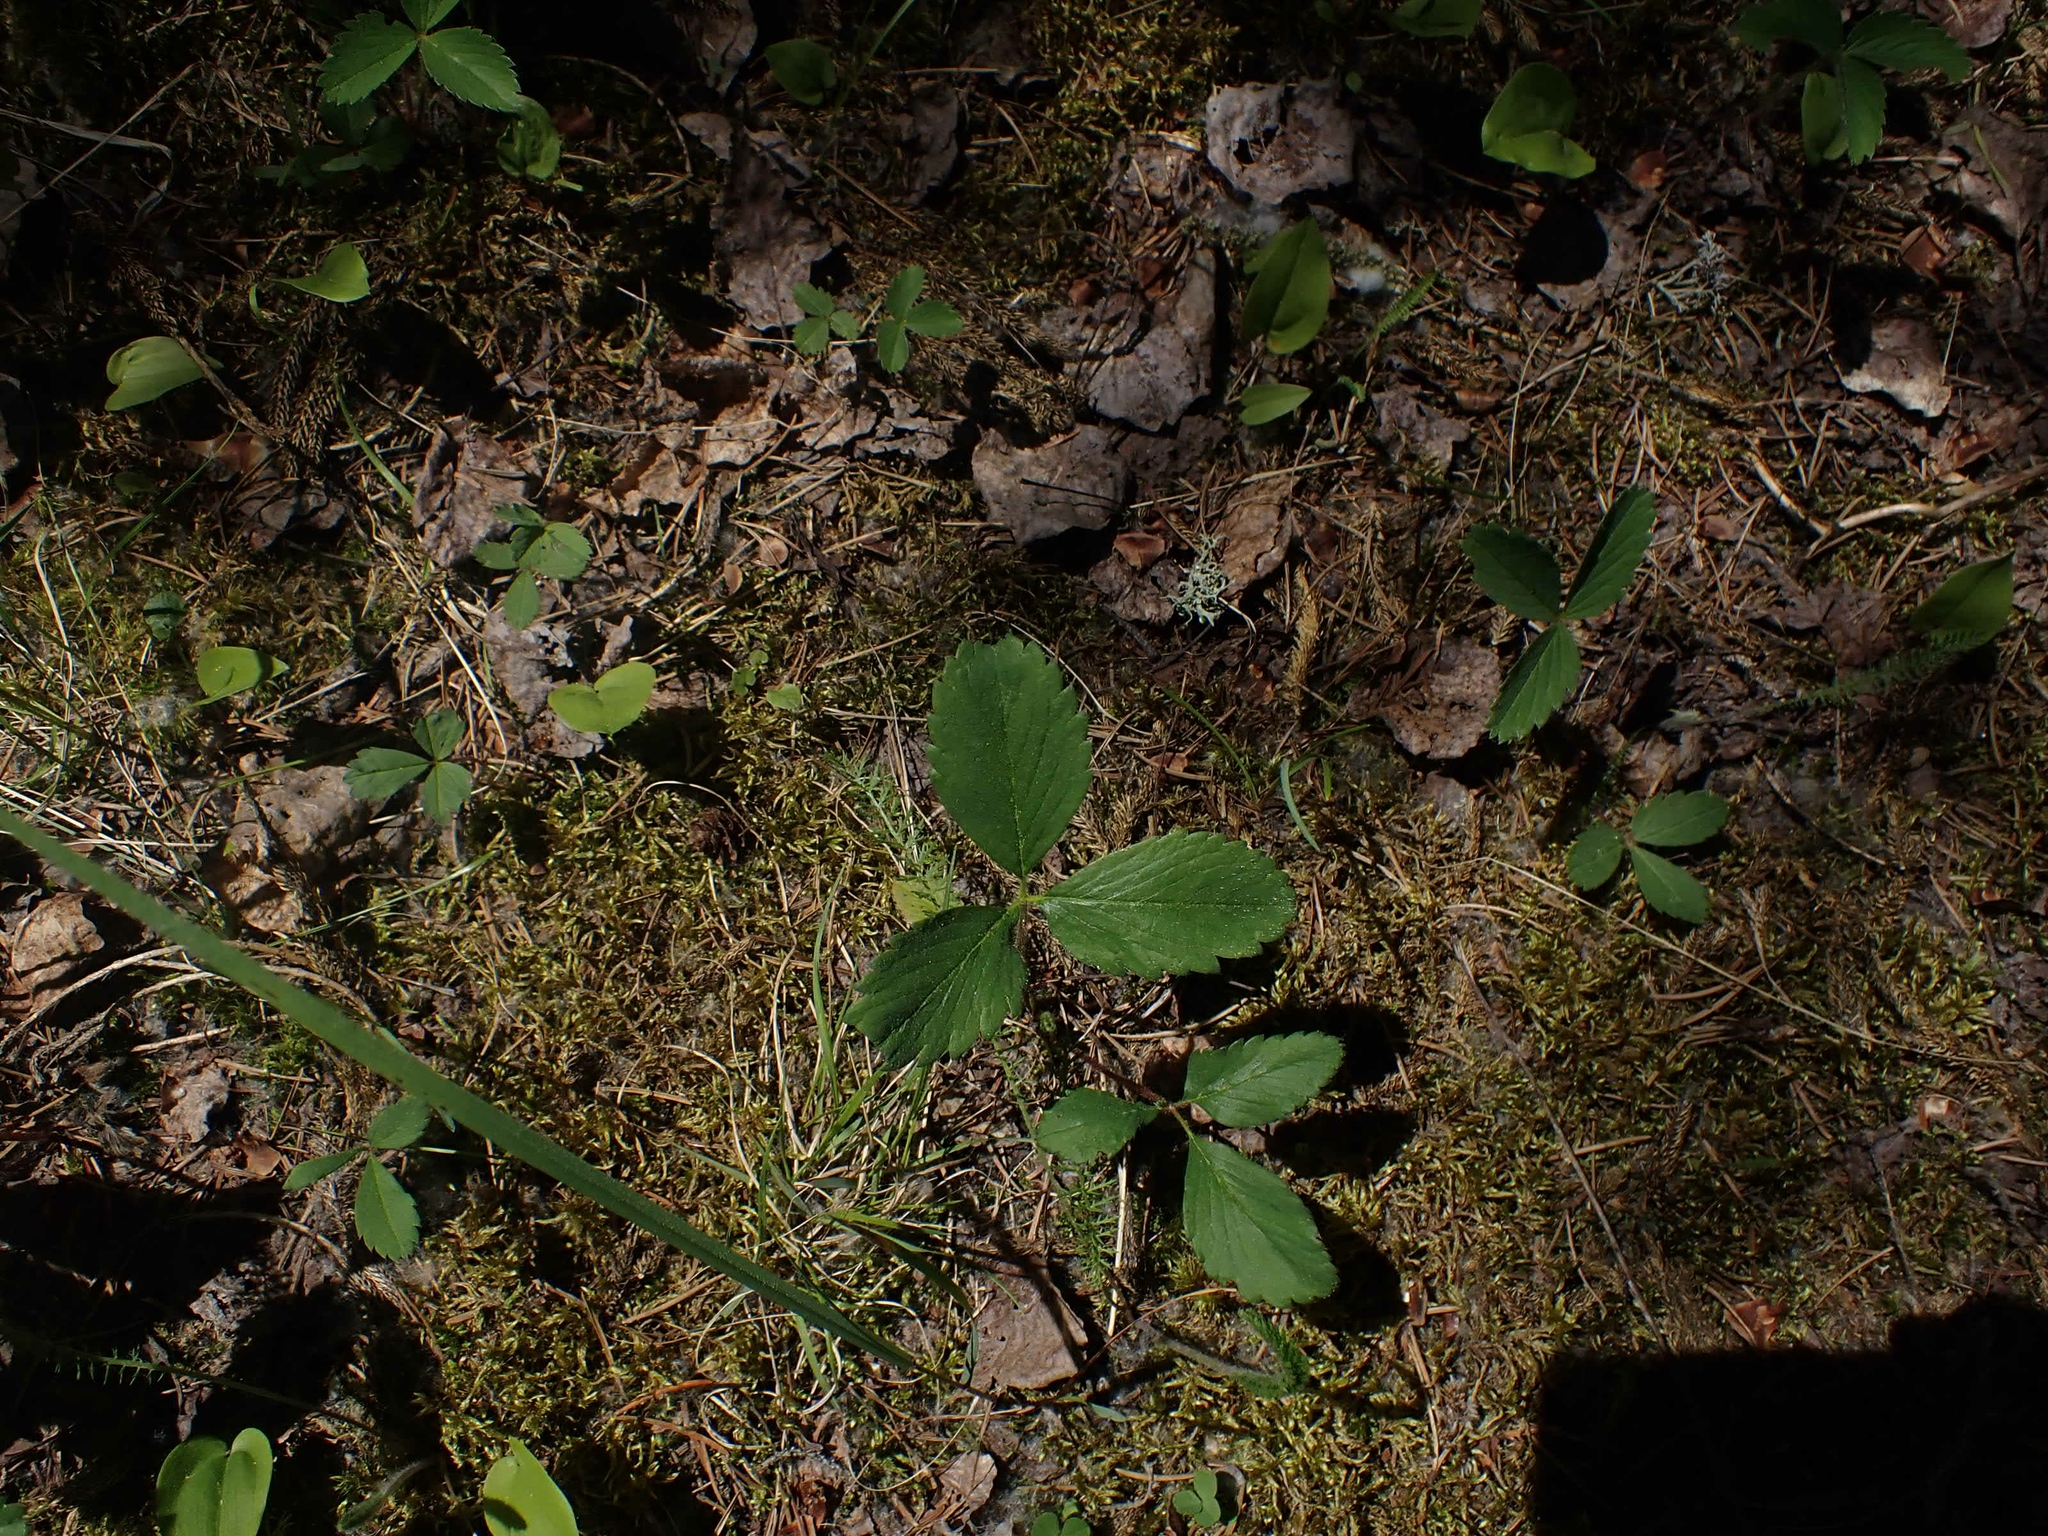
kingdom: Plantae
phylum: Tracheophyta
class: Magnoliopsida
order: Rosales
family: Rosaceae
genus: Fragaria
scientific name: Fragaria virginiana
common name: Thickleaved wild strawberry
